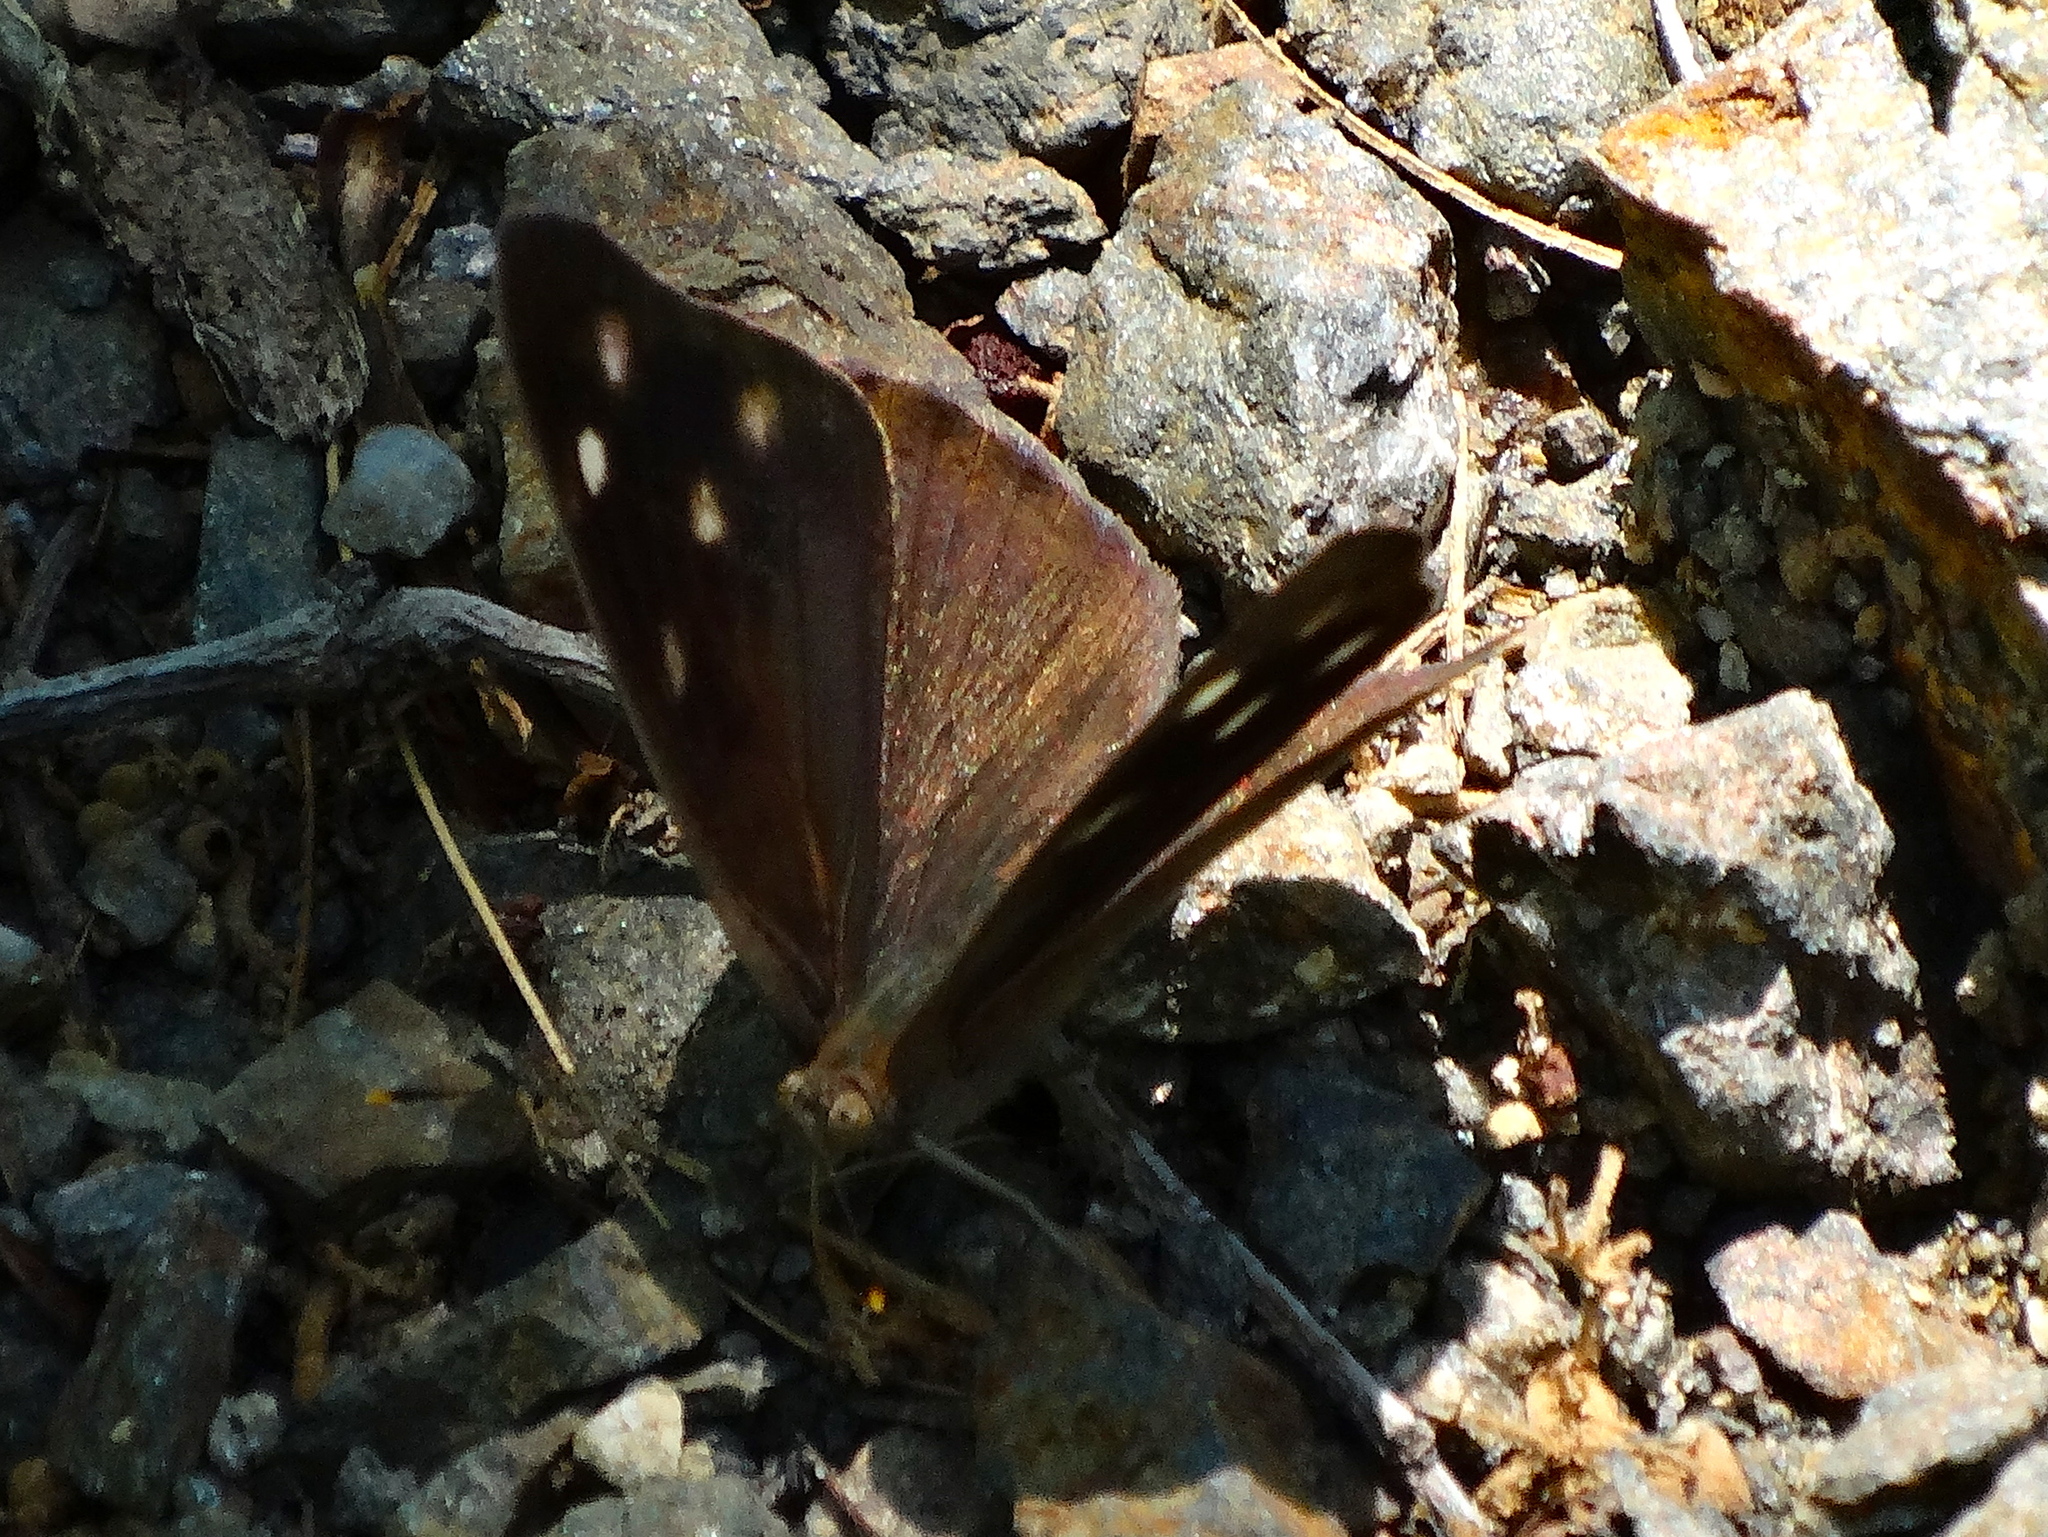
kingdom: Animalia
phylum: Arthropoda
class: Insecta
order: Lepidoptera
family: Nymphalidae
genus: Eunica
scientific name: Eunica monima
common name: Dingy purplewing
